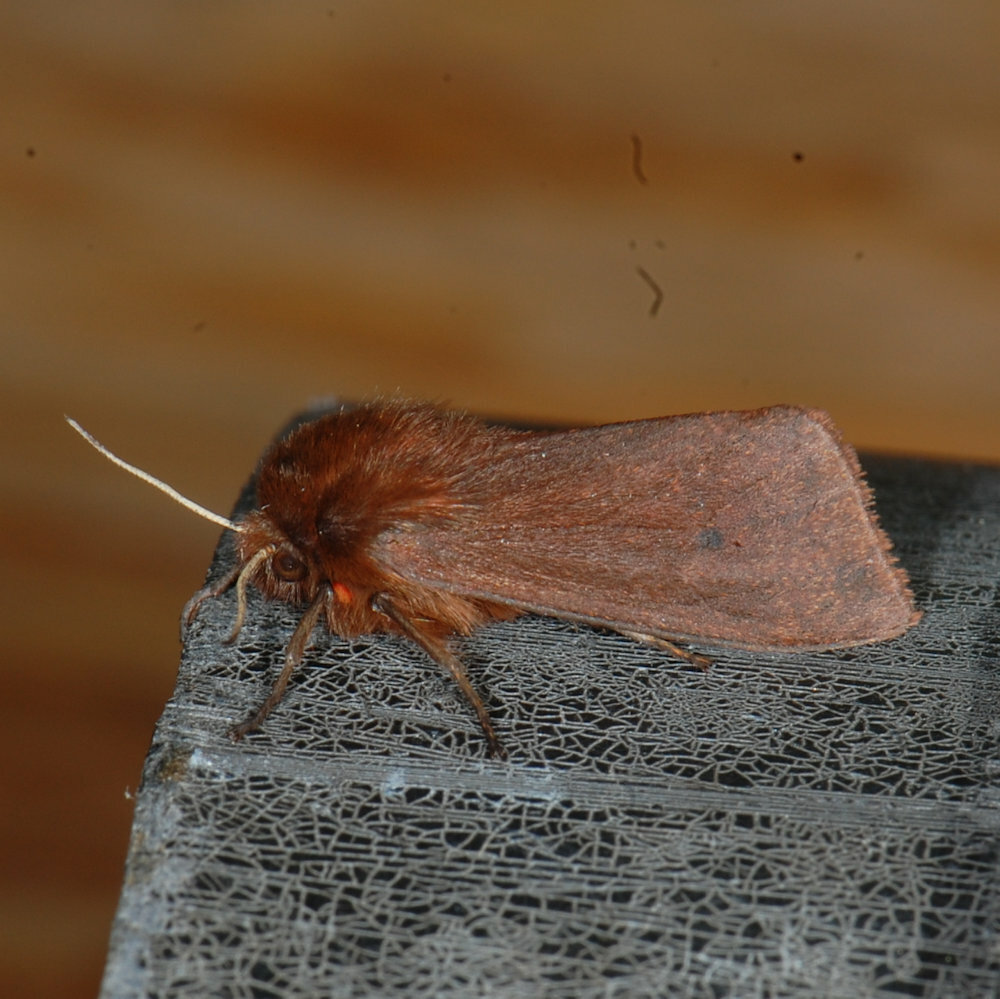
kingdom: Animalia
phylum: Arthropoda
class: Insecta
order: Lepidoptera
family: Erebidae
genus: Phragmatobia
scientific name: Phragmatobia fuliginosa
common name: Ruby tiger
